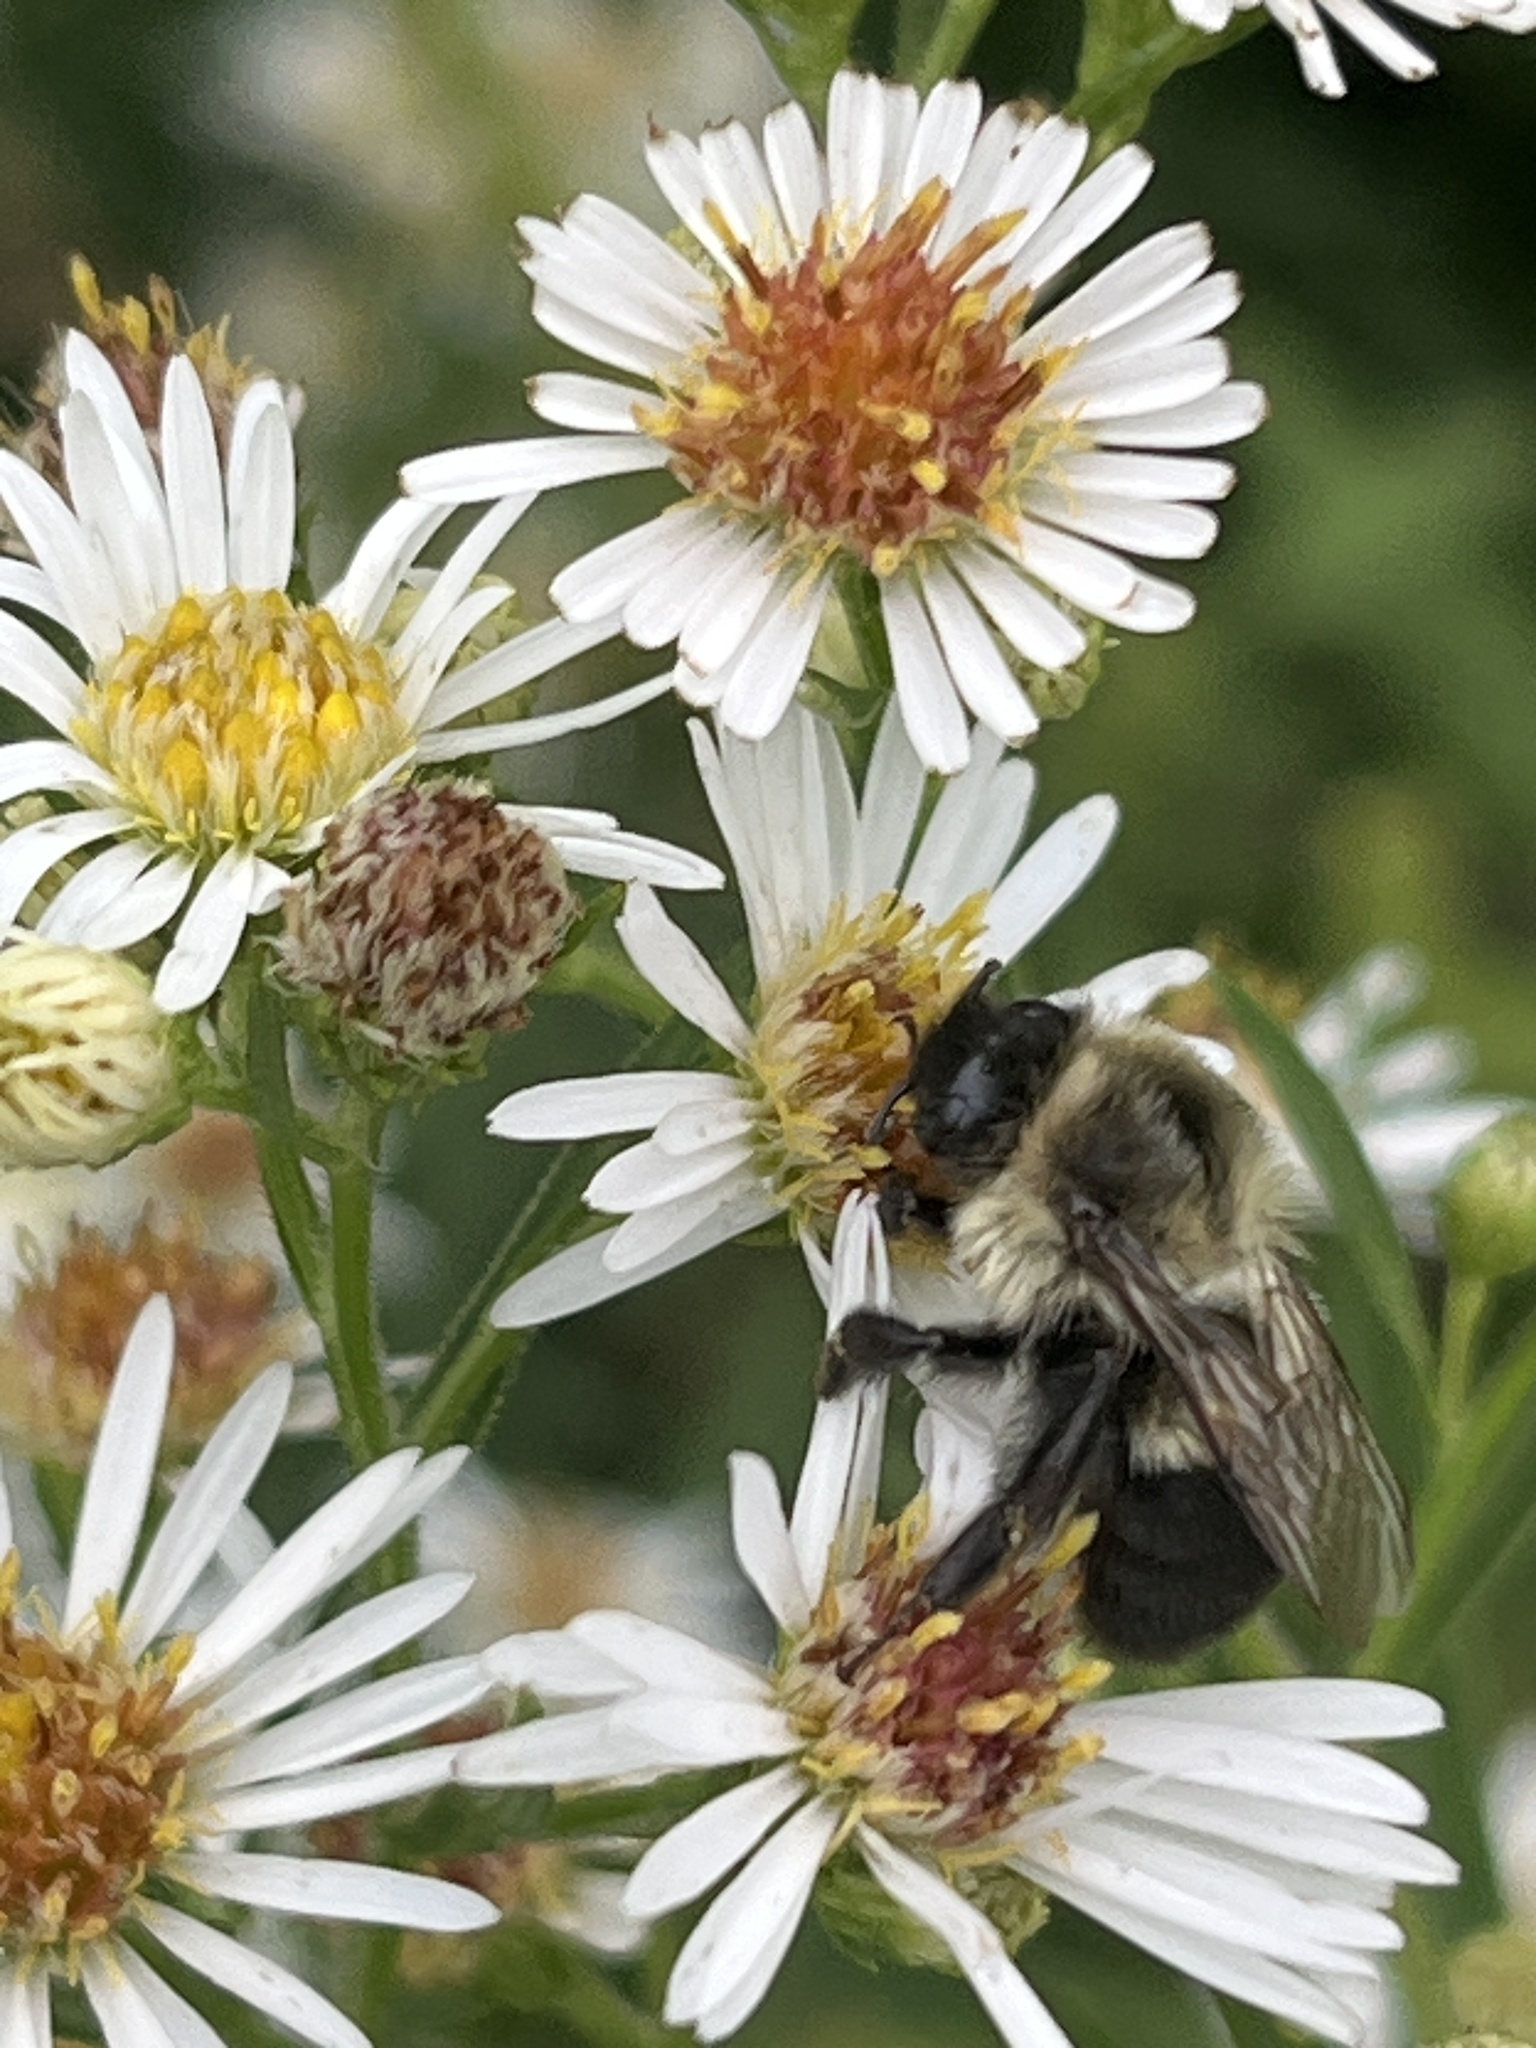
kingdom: Animalia
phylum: Arthropoda
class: Insecta
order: Hymenoptera
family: Apidae
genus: Bombus
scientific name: Bombus impatiens
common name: Common eastern bumble bee
